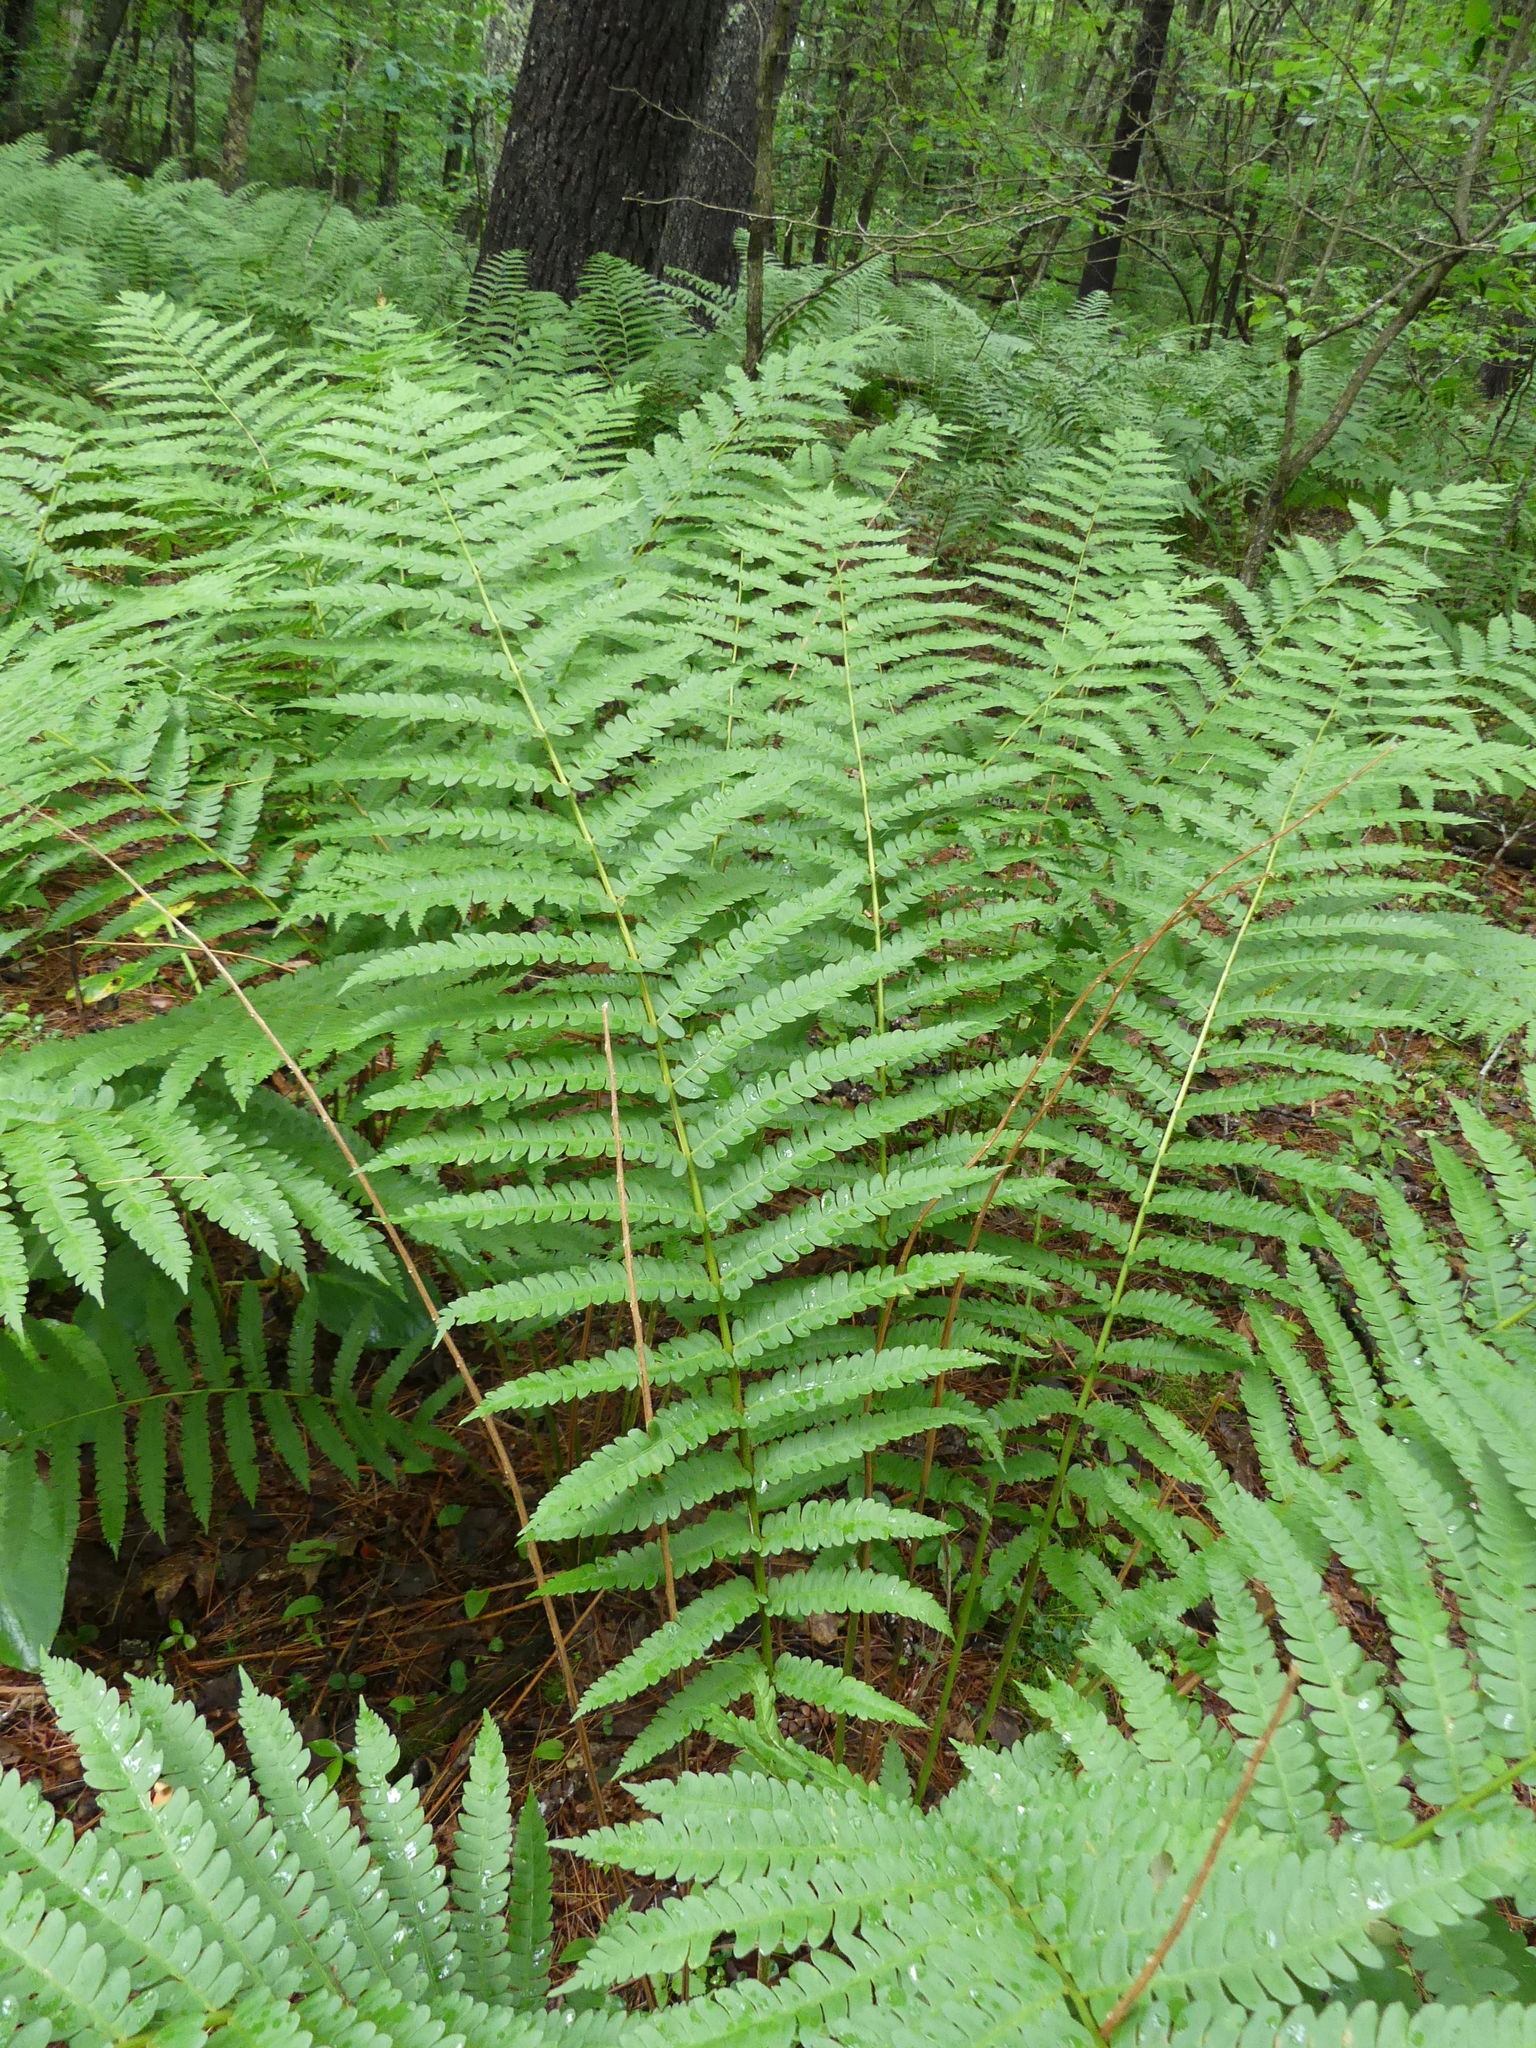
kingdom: Plantae
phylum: Tracheophyta
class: Polypodiopsida
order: Osmundales
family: Osmundaceae
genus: Osmundastrum
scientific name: Osmundastrum cinnamomeum
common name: Cinnamon fern
